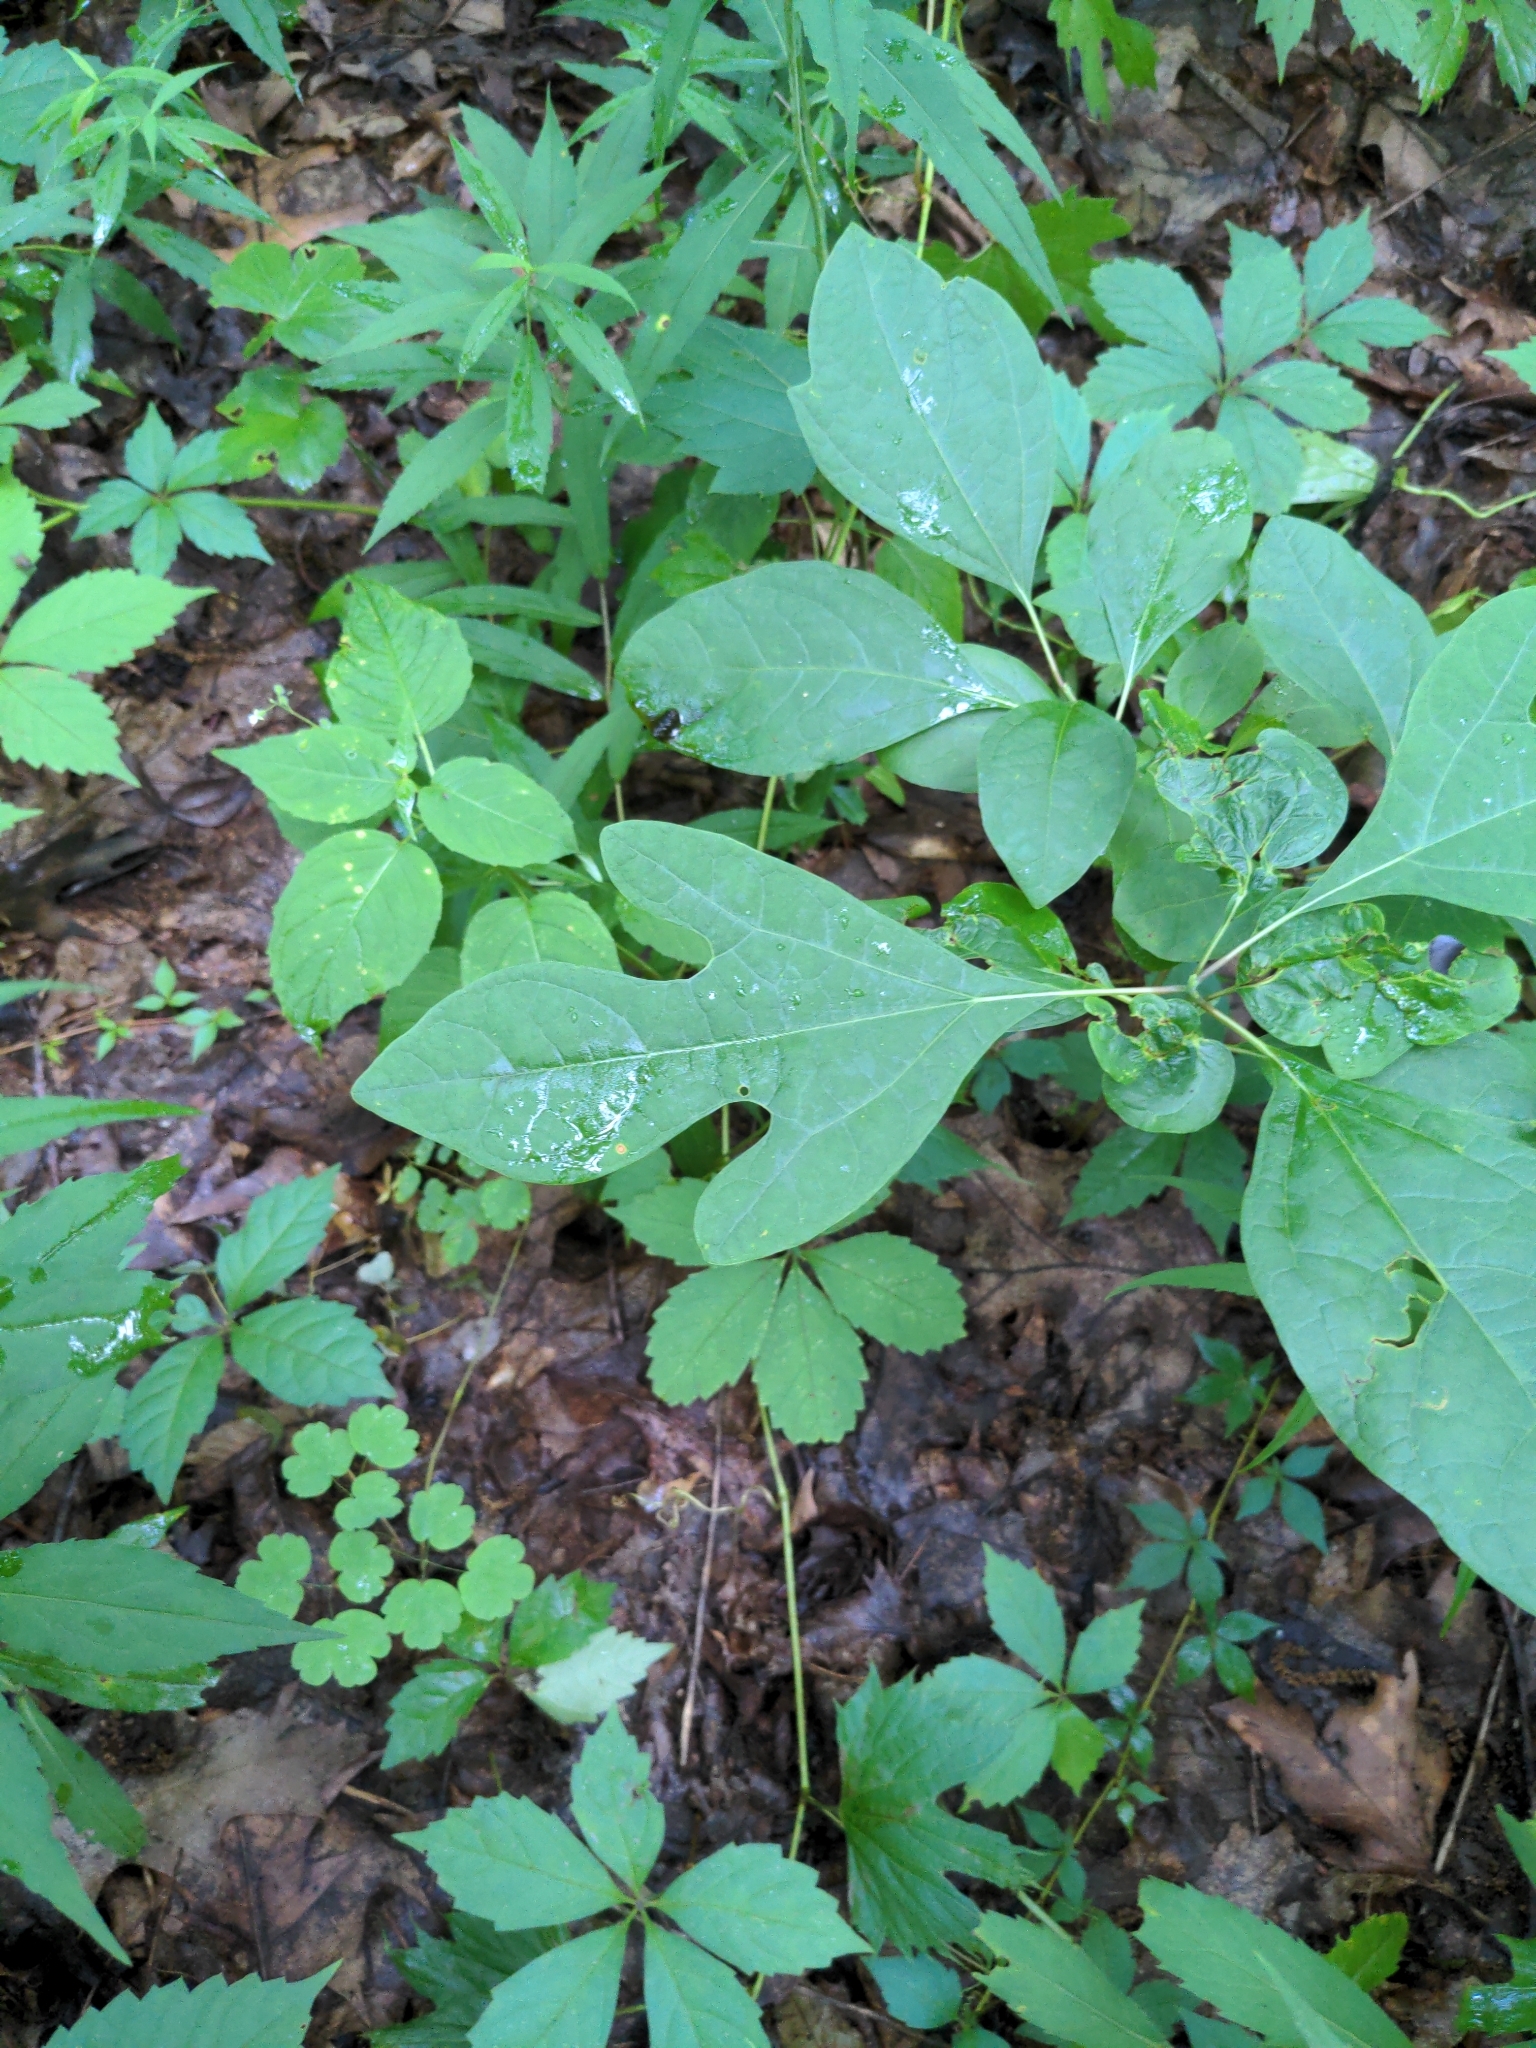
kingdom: Plantae
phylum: Tracheophyta
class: Magnoliopsida
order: Laurales
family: Lauraceae
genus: Sassafras
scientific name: Sassafras albidum
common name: Sassafras
